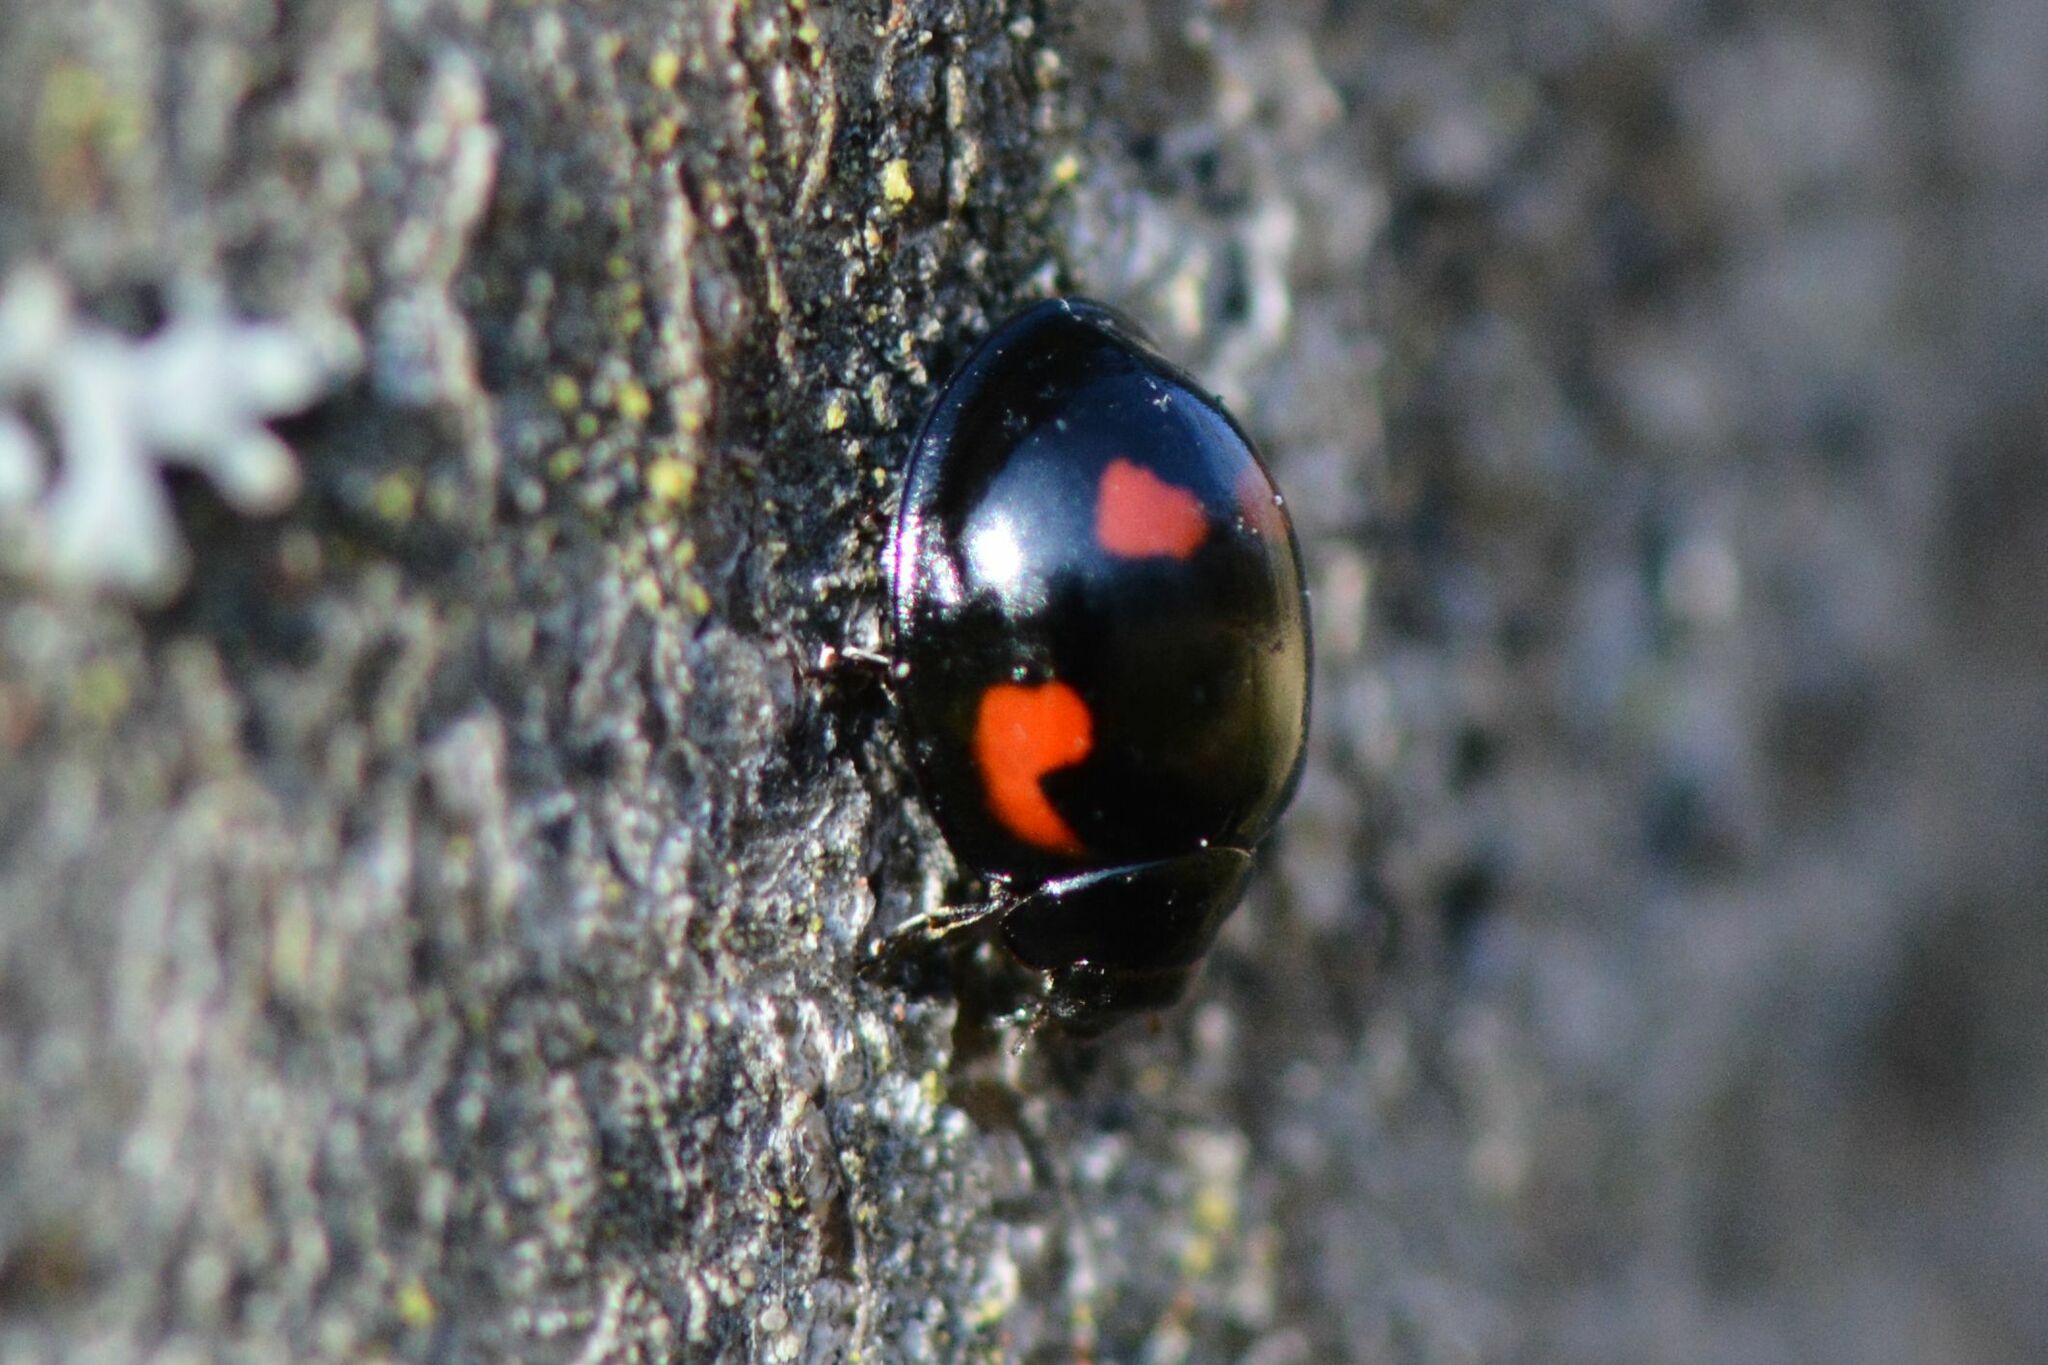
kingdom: Animalia
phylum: Arthropoda
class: Insecta
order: Coleoptera
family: Coccinellidae
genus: Brumus
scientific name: Brumus quadripustulatus
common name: Ladybird beetle
